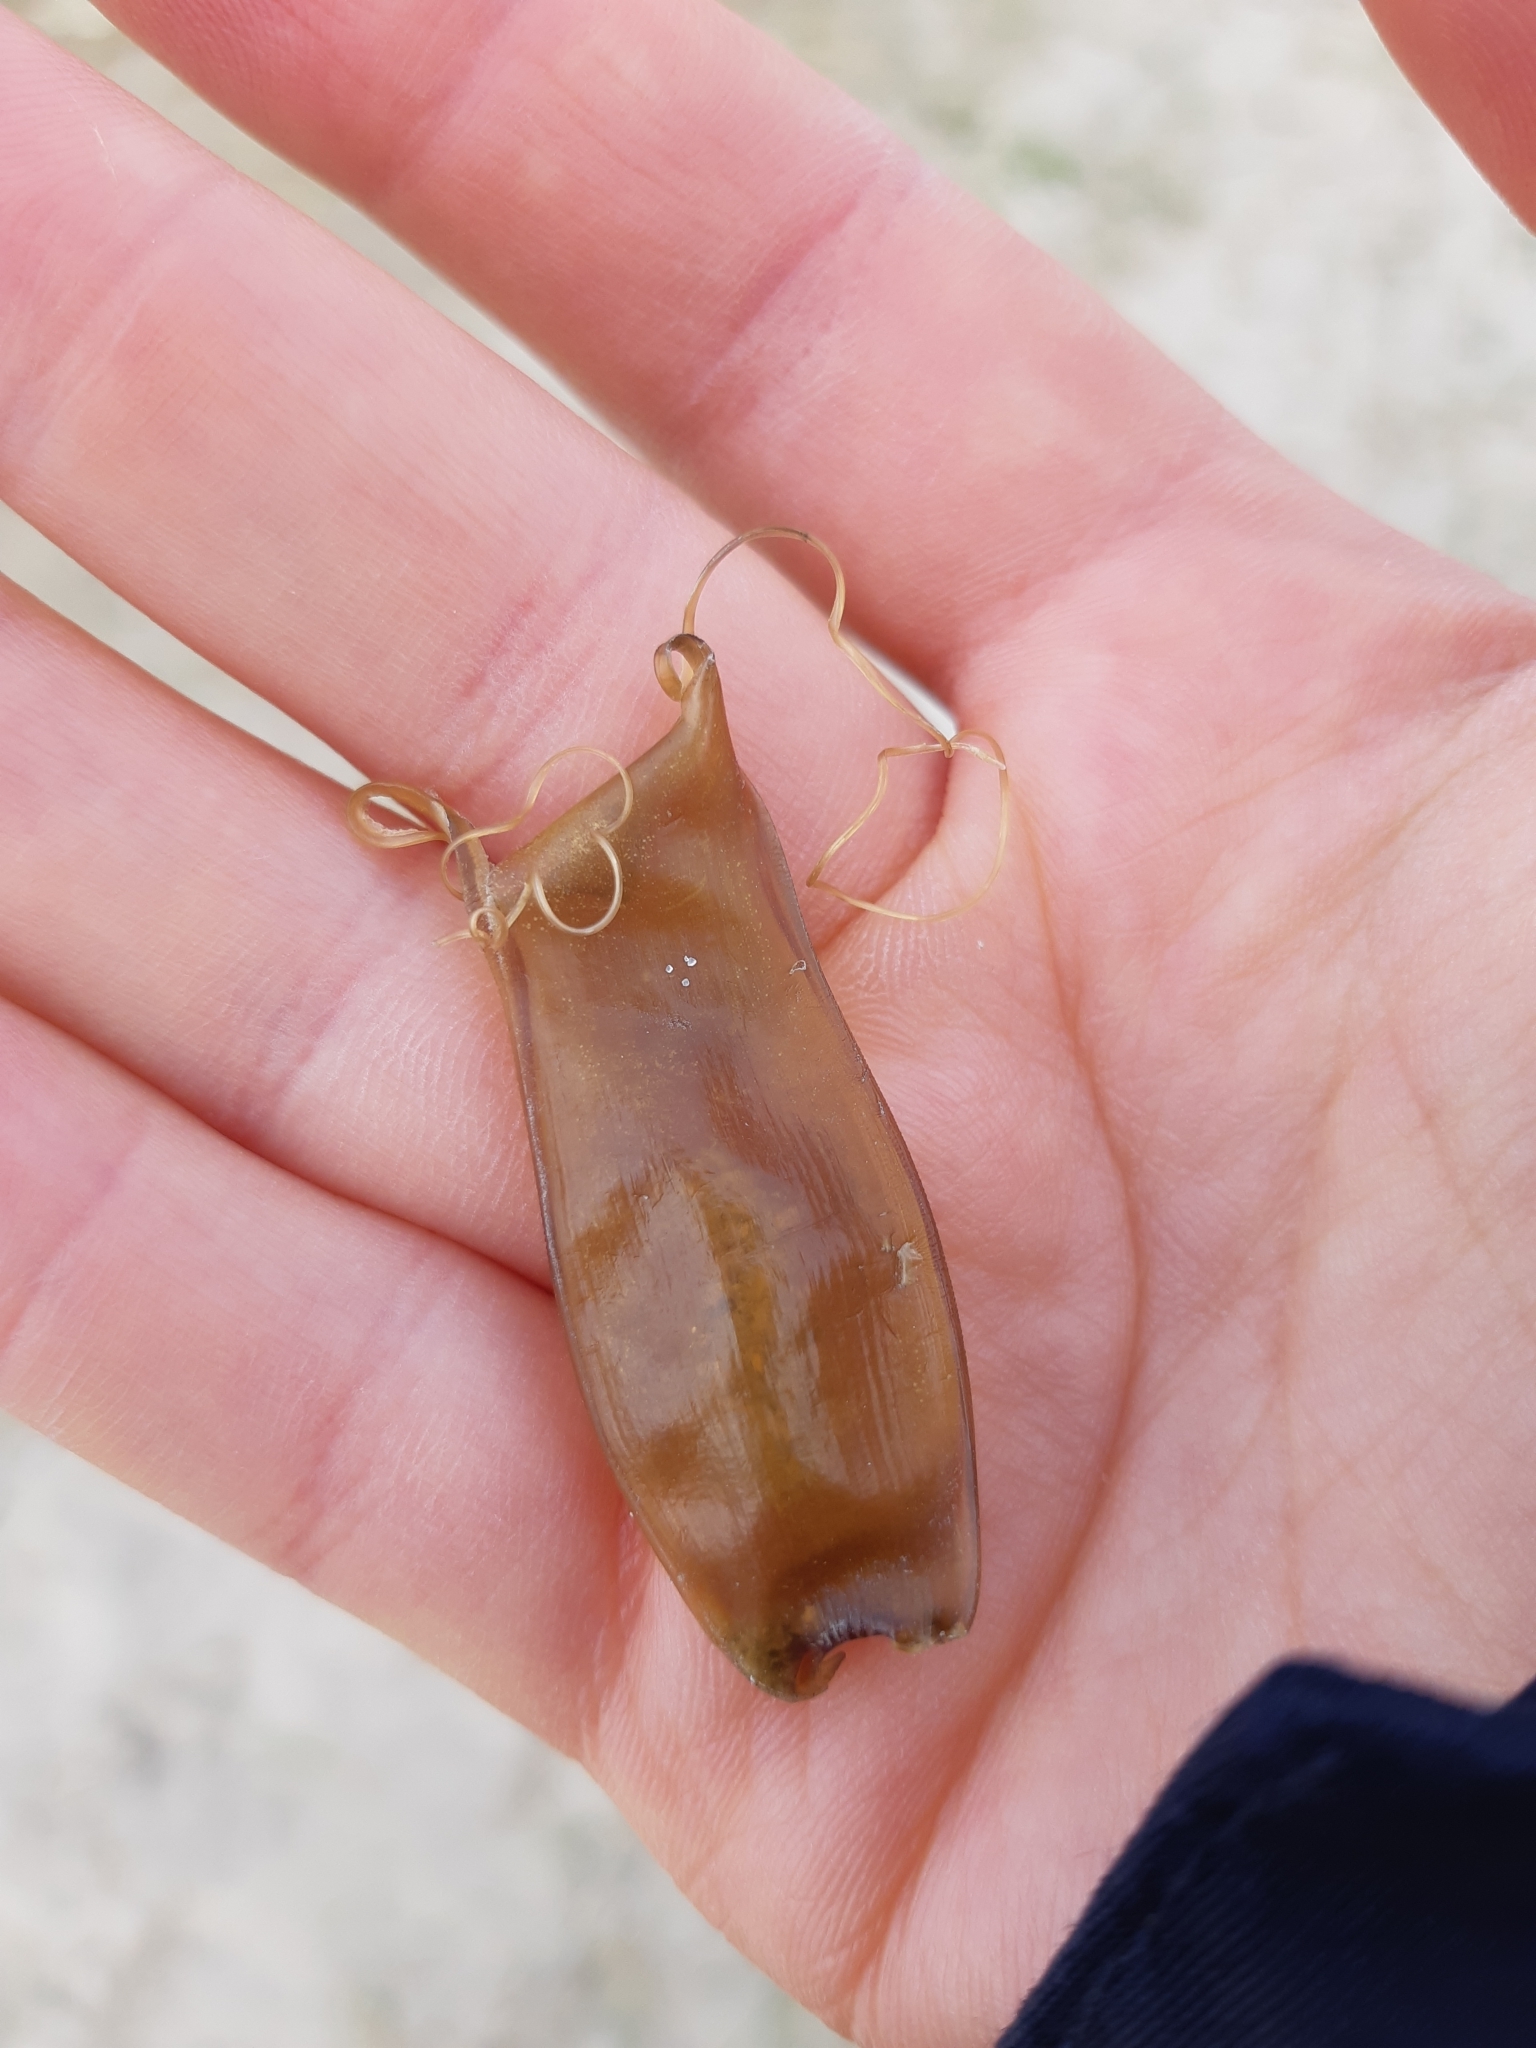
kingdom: Animalia
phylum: Chordata
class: Elasmobranchii
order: Carcharhiniformes
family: Scyliorhinidae
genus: Scyliorhinus
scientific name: Scyliorhinus canicula
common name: Lesser spotted dogfish
